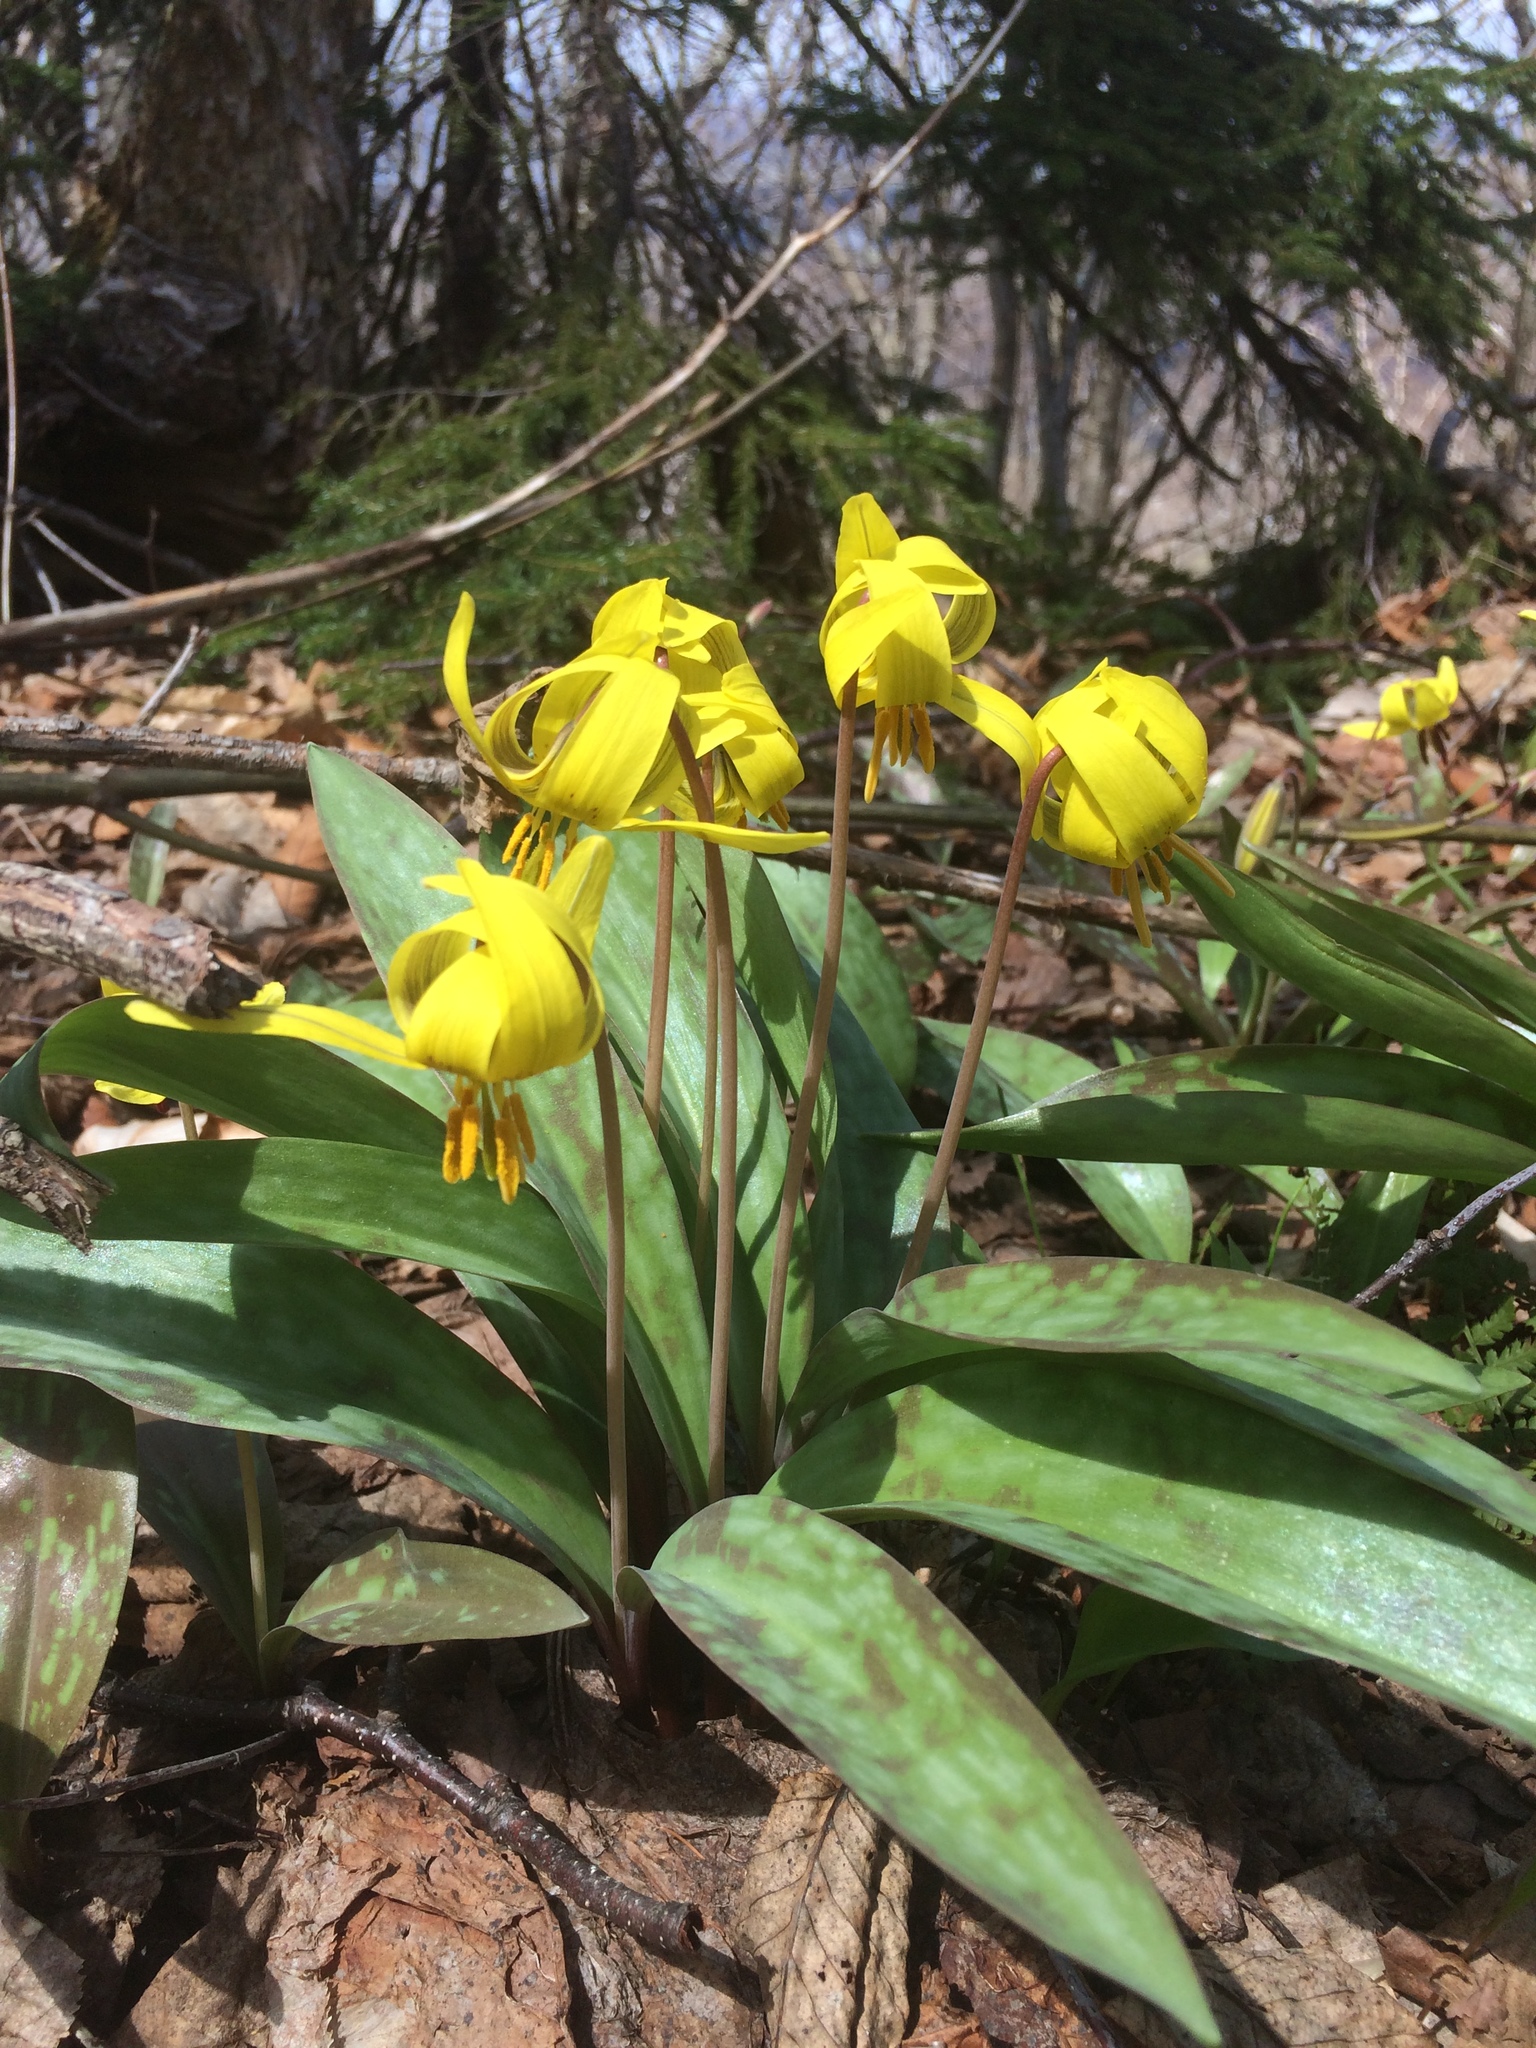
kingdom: Plantae
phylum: Tracheophyta
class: Liliopsida
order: Liliales
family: Liliaceae
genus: Erythronium
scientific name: Erythronium americanum
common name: Yellow adder's-tongue
